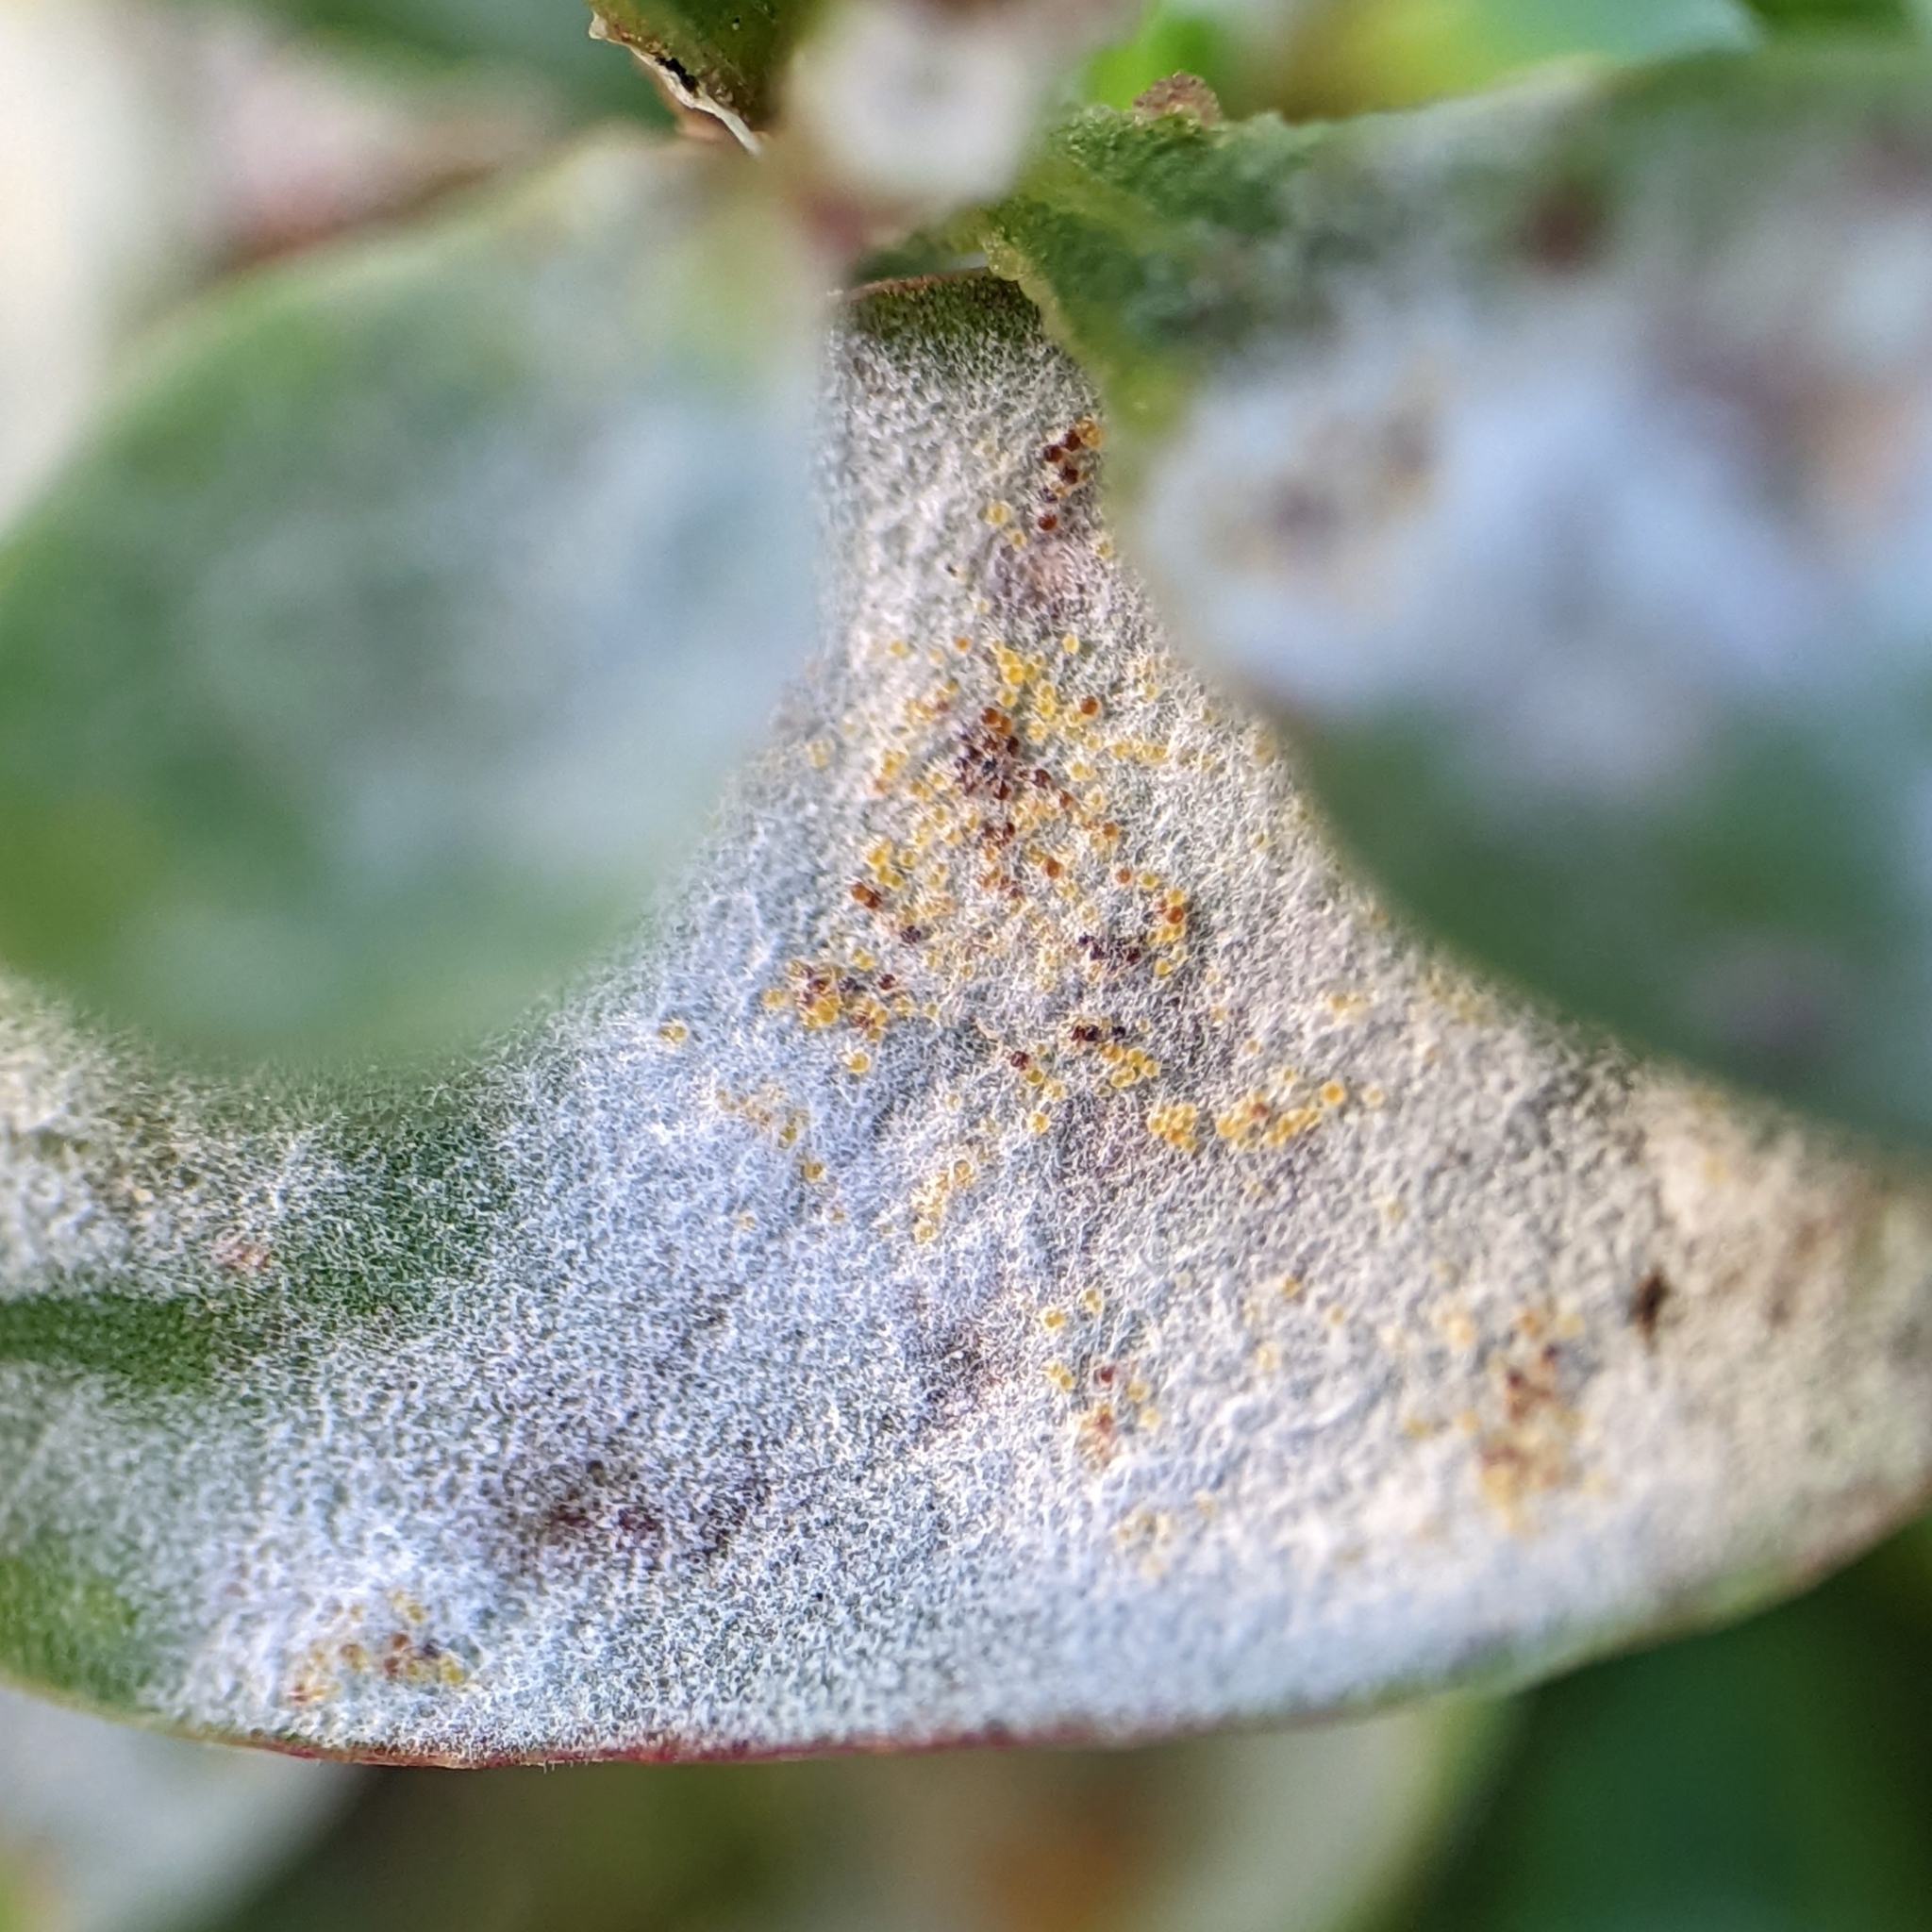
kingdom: Fungi
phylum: Ascomycota
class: Leotiomycetes
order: Helotiales
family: Erysiphaceae
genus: Erysiphe
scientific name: Erysiphe polygoni
